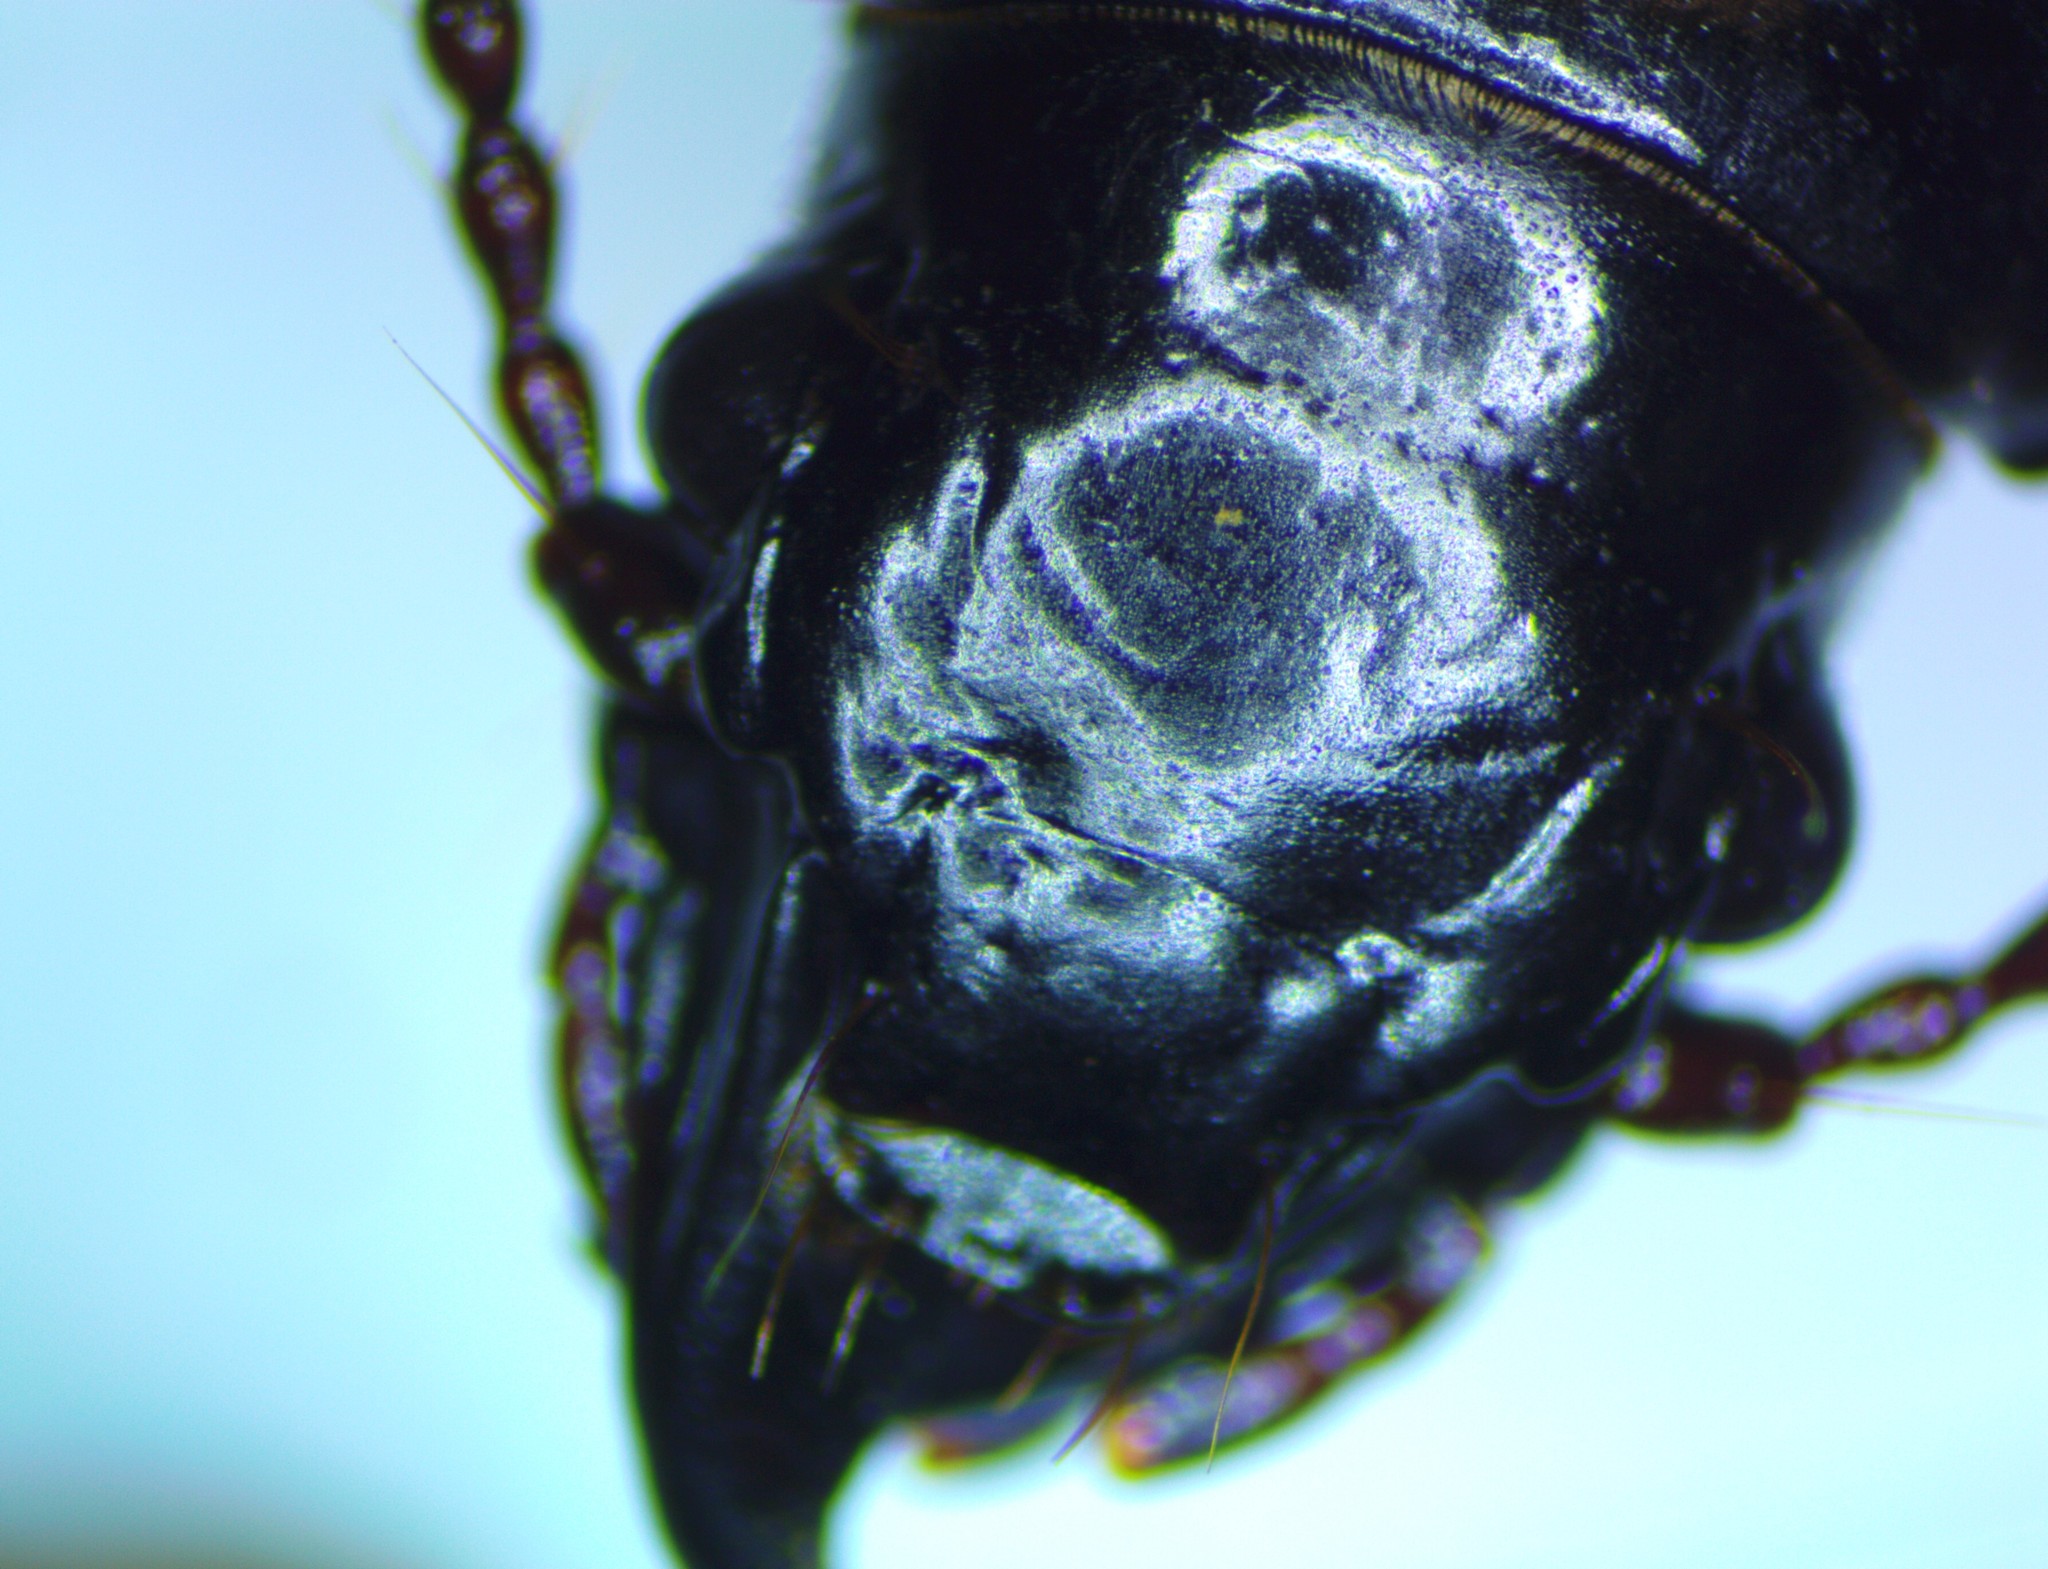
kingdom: Animalia
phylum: Arthropoda
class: Insecta
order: Coleoptera
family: Carabidae
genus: Mecodema
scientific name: Mecodema dunense
